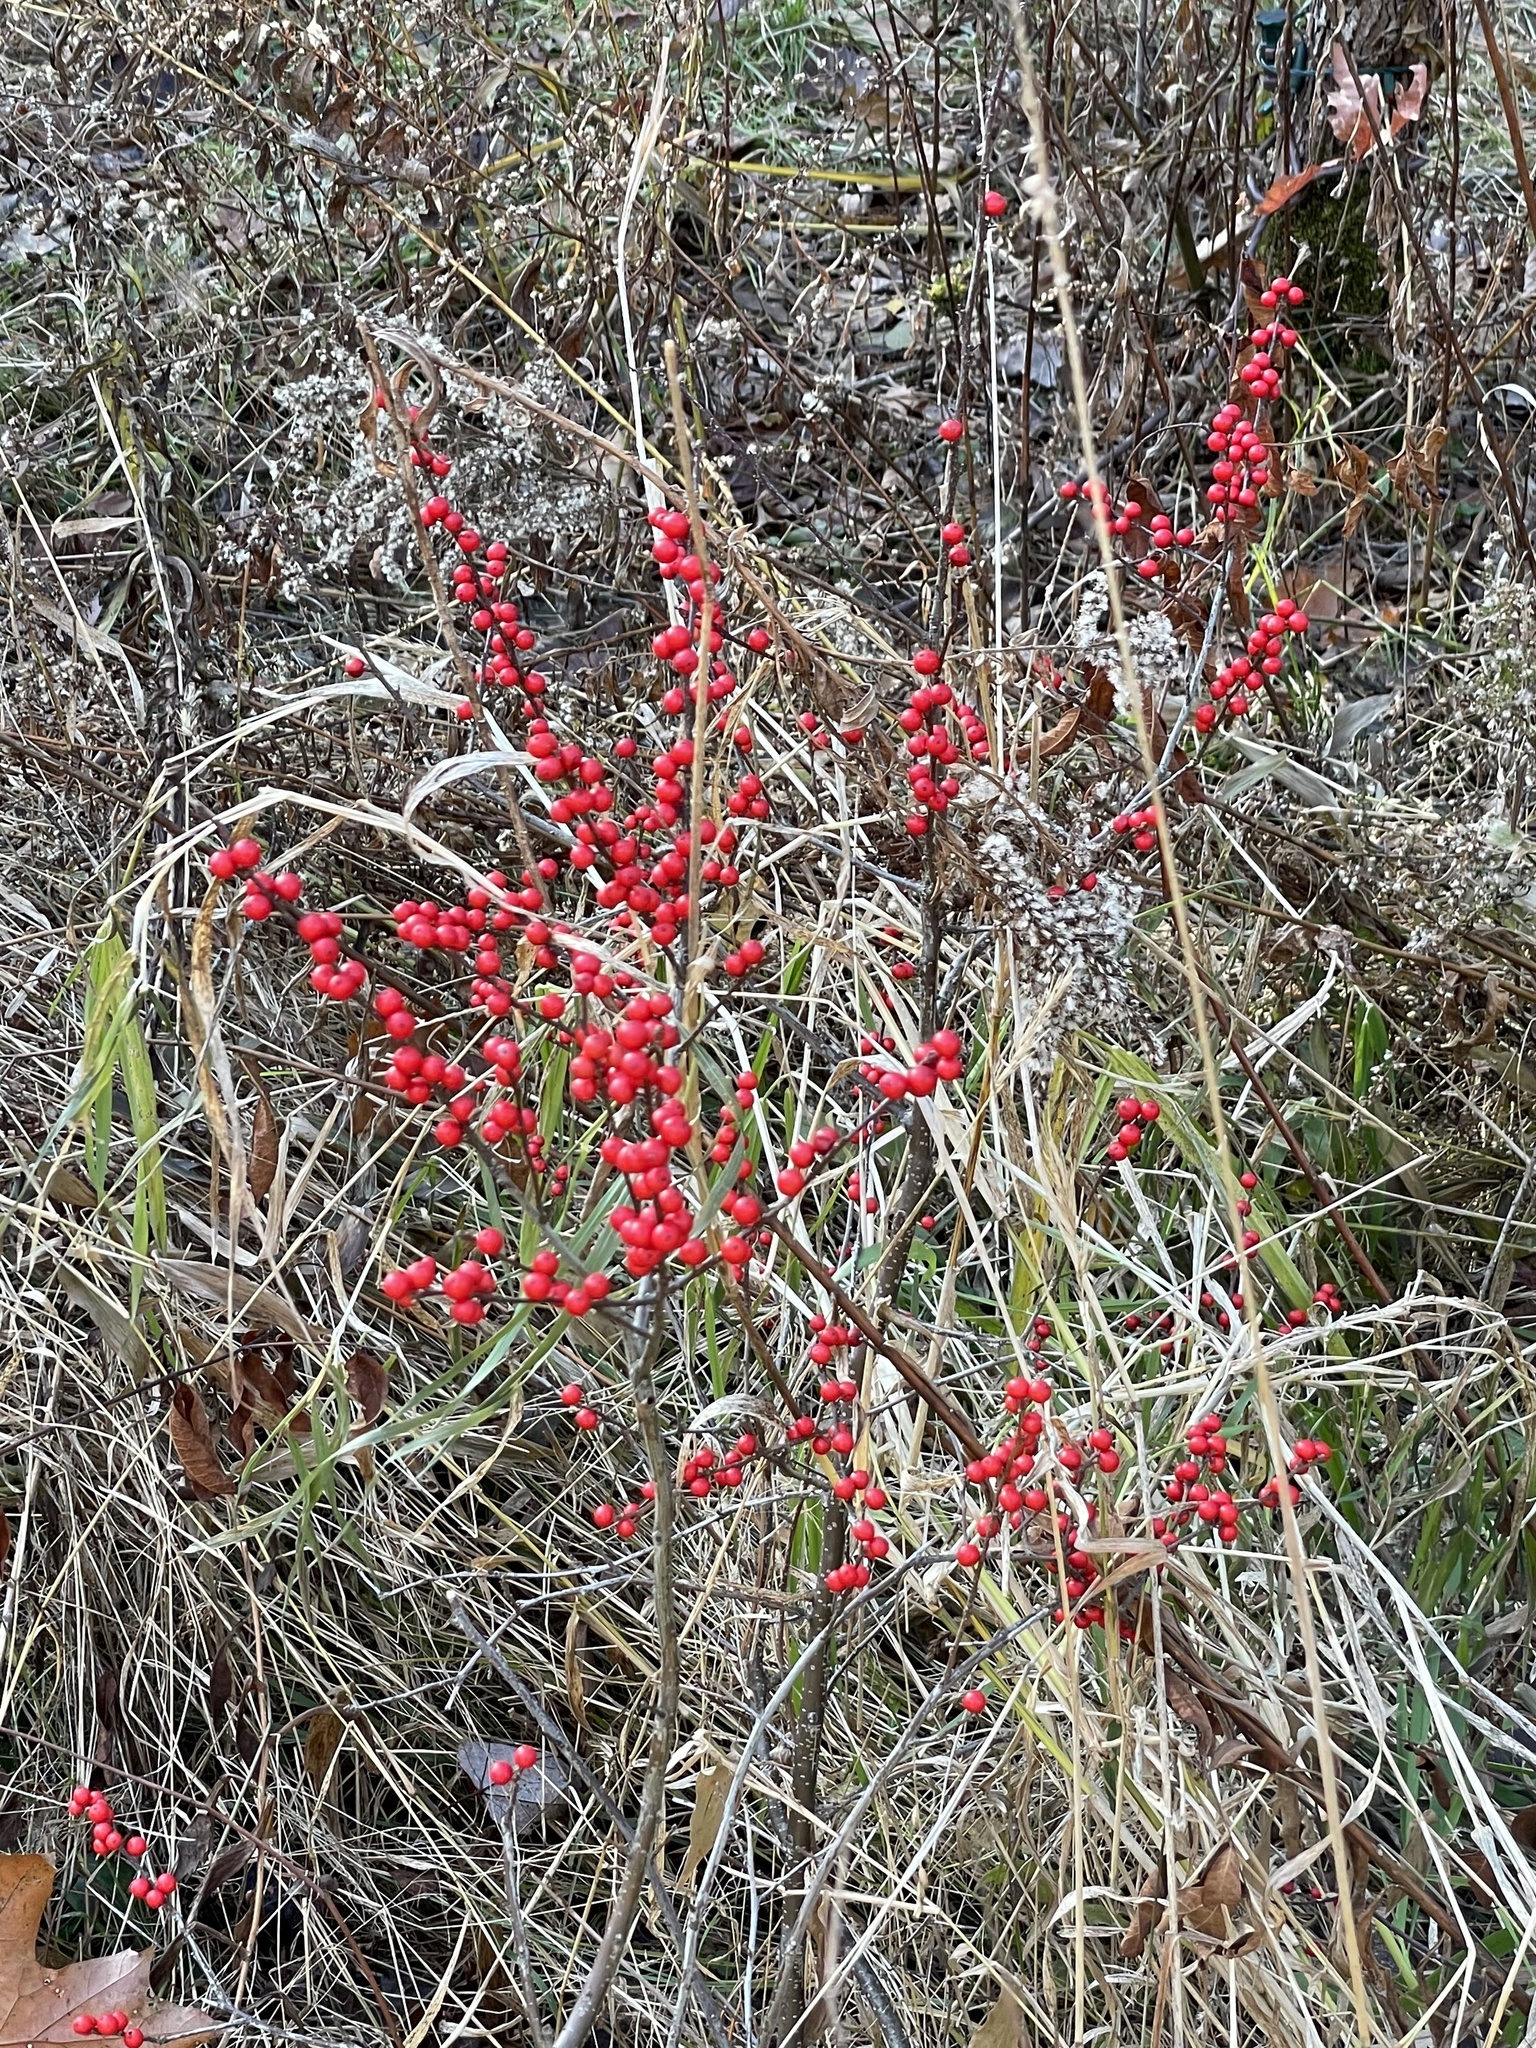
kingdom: Plantae
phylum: Tracheophyta
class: Magnoliopsida
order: Aquifoliales
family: Aquifoliaceae
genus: Ilex
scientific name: Ilex verticillata
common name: Virginia winterberry
